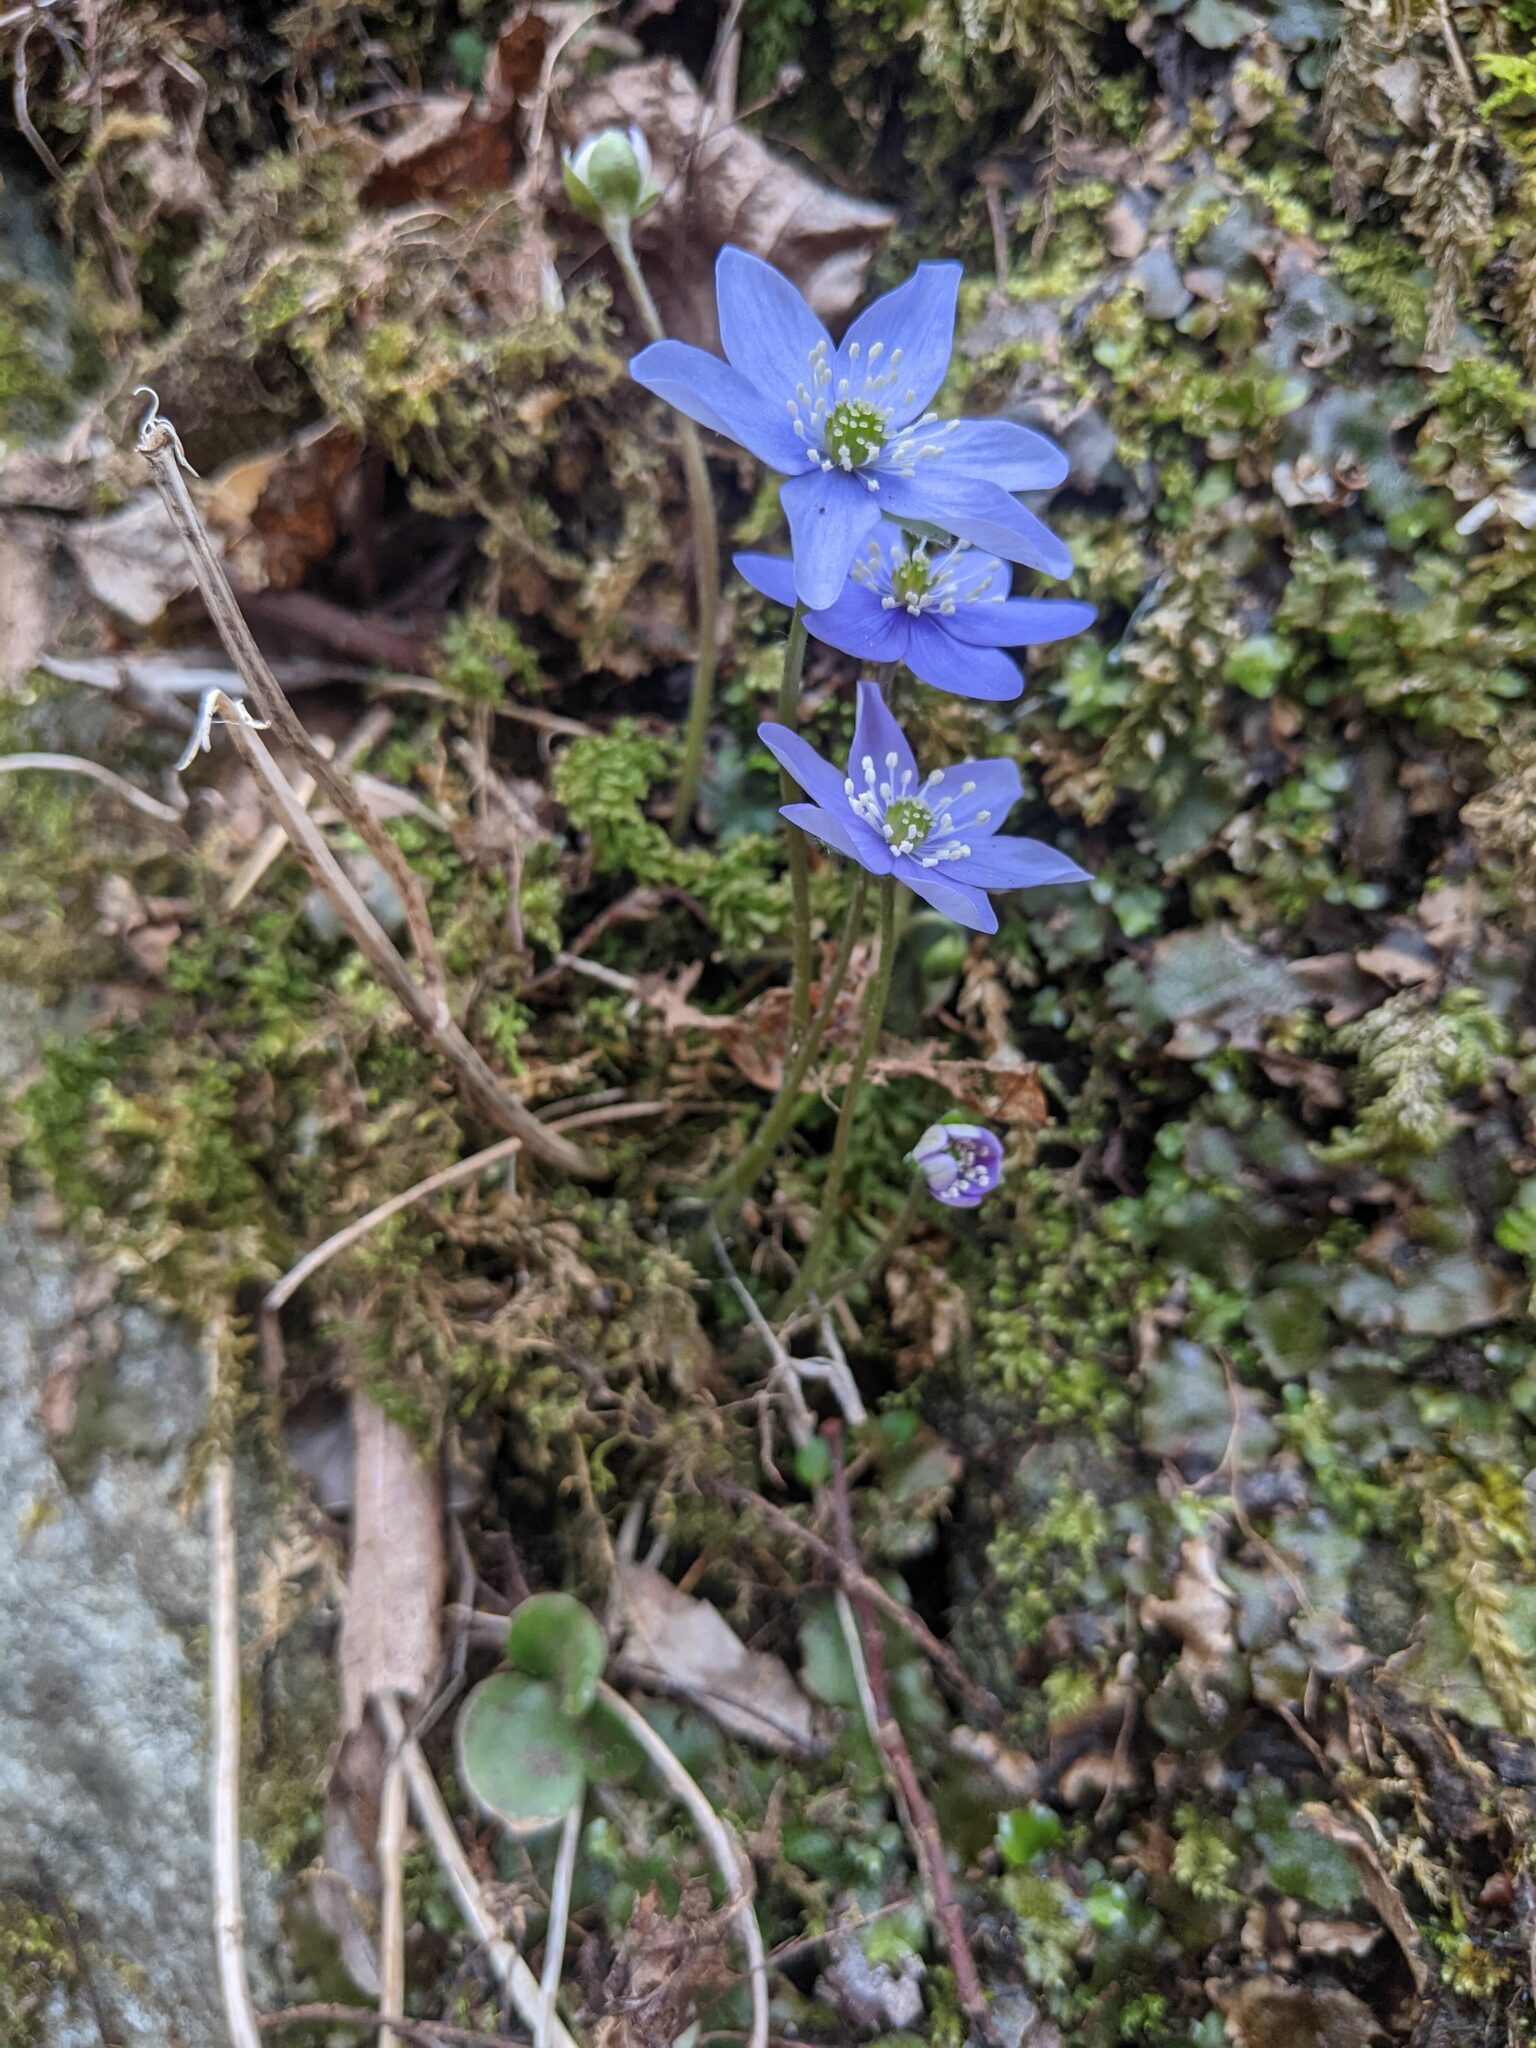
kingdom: Plantae
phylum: Tracheophyta
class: Magnoliopsida
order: Ranunculales
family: Ranunculaceae
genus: Hepatica
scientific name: Hepatica nobilis
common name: Liverleaf
